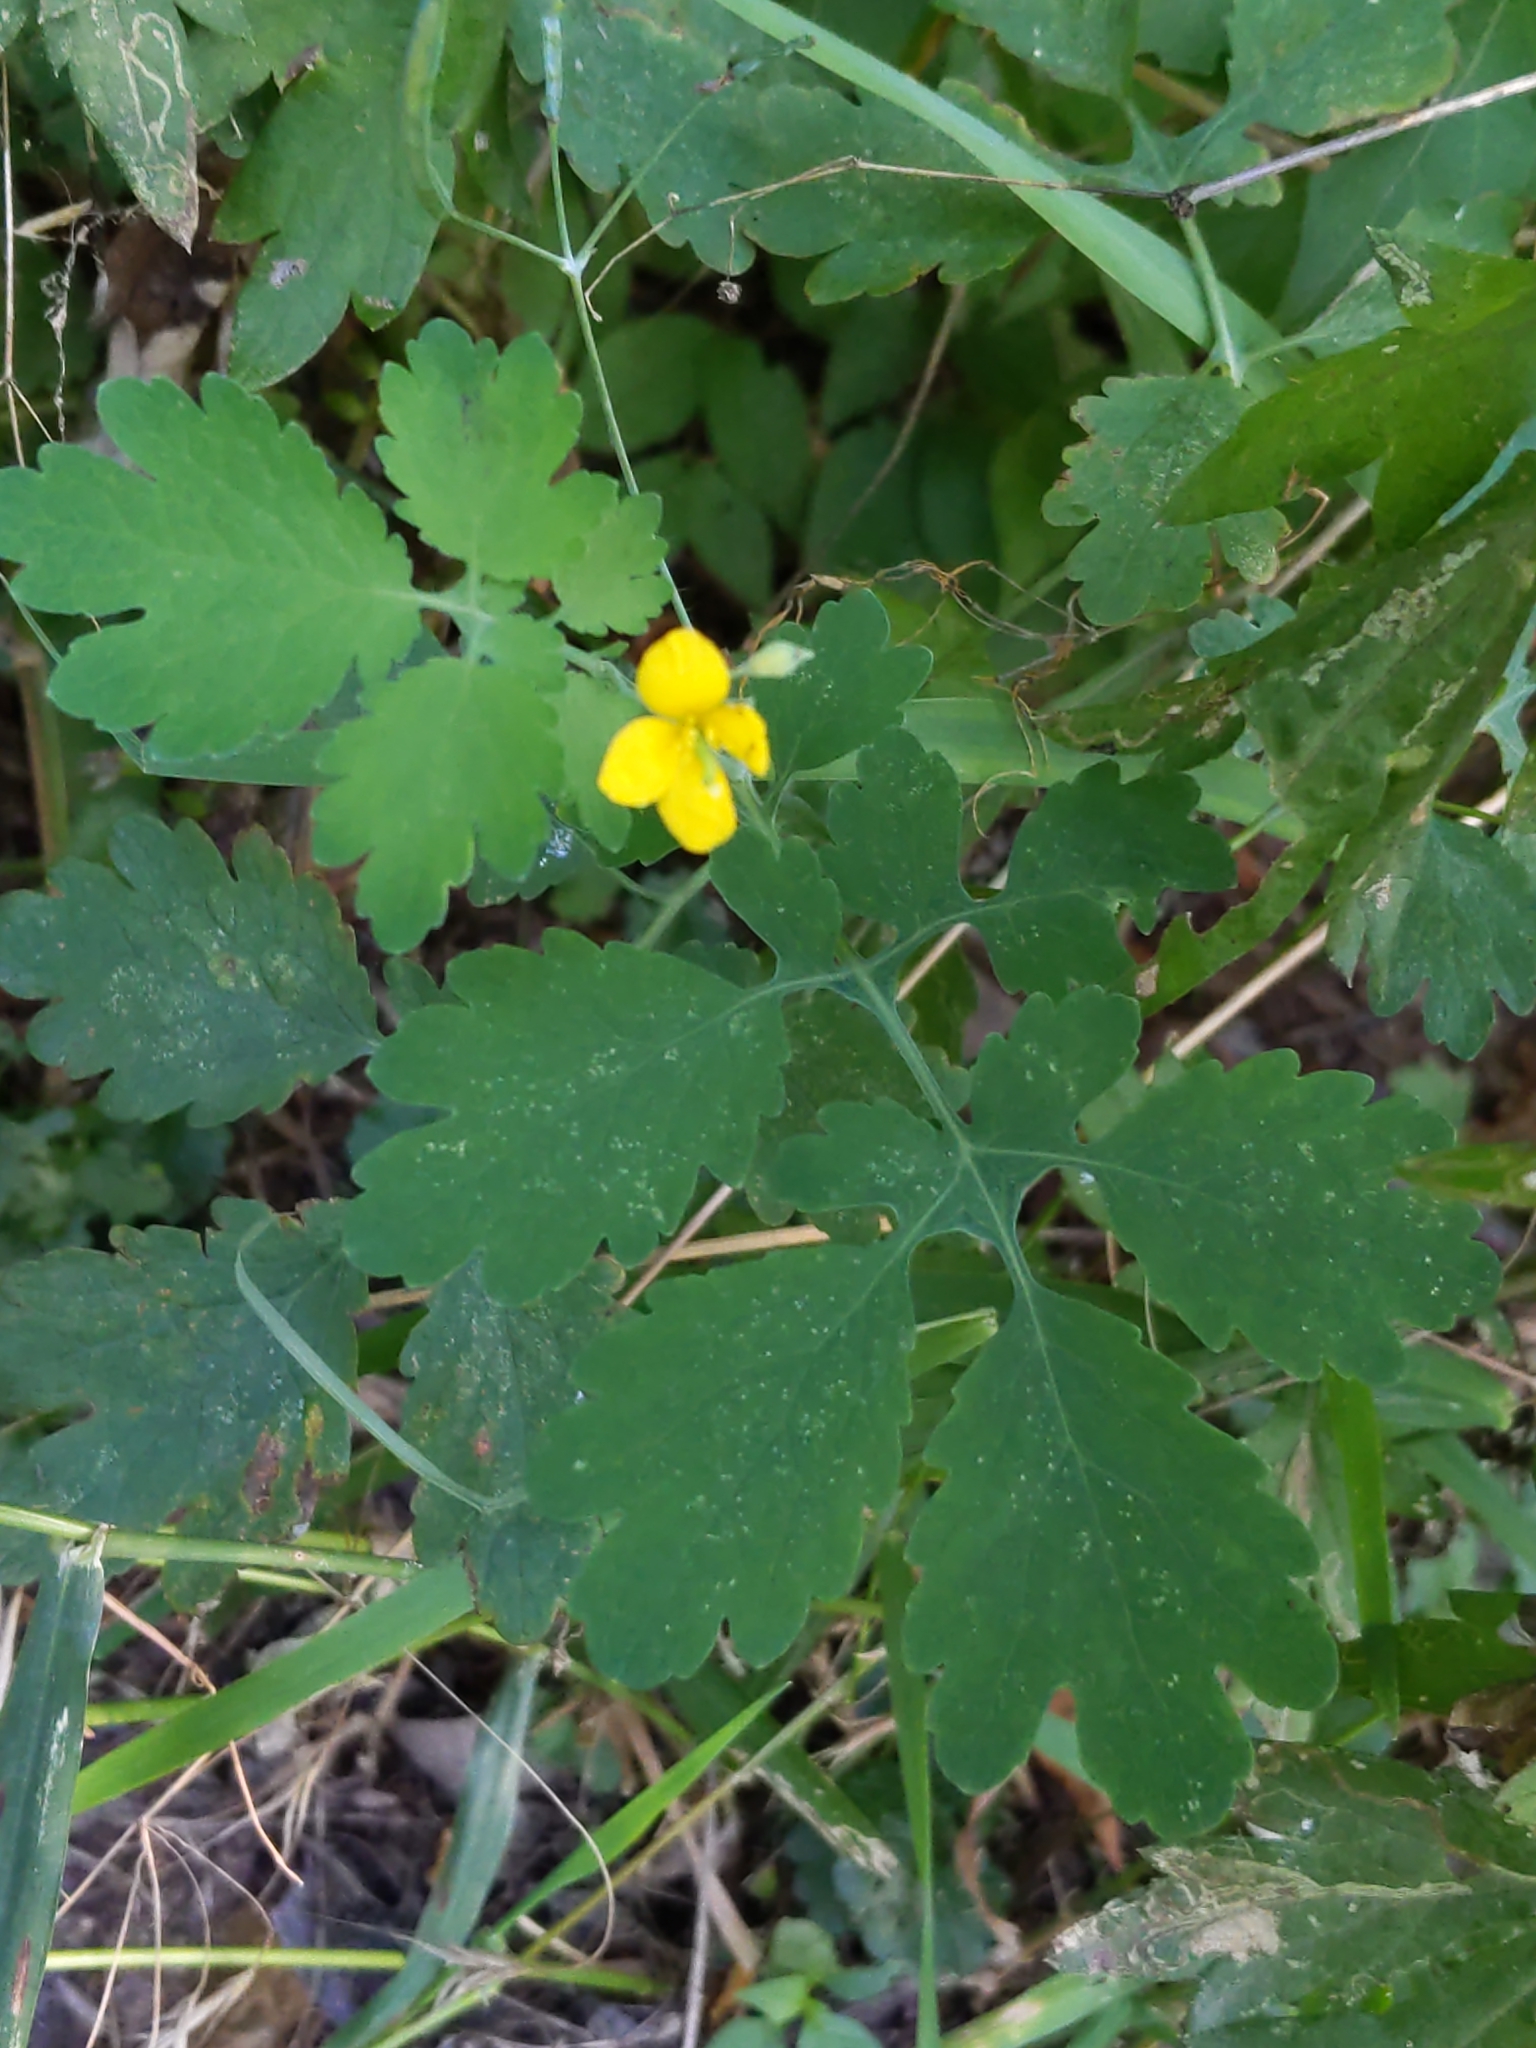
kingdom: Plantae
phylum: Tracheophyta
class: Magnoliopsida
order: Ranunculales
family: Papaveraceae
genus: Chelidonium
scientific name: Chelidonium majus
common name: Greater celandine
